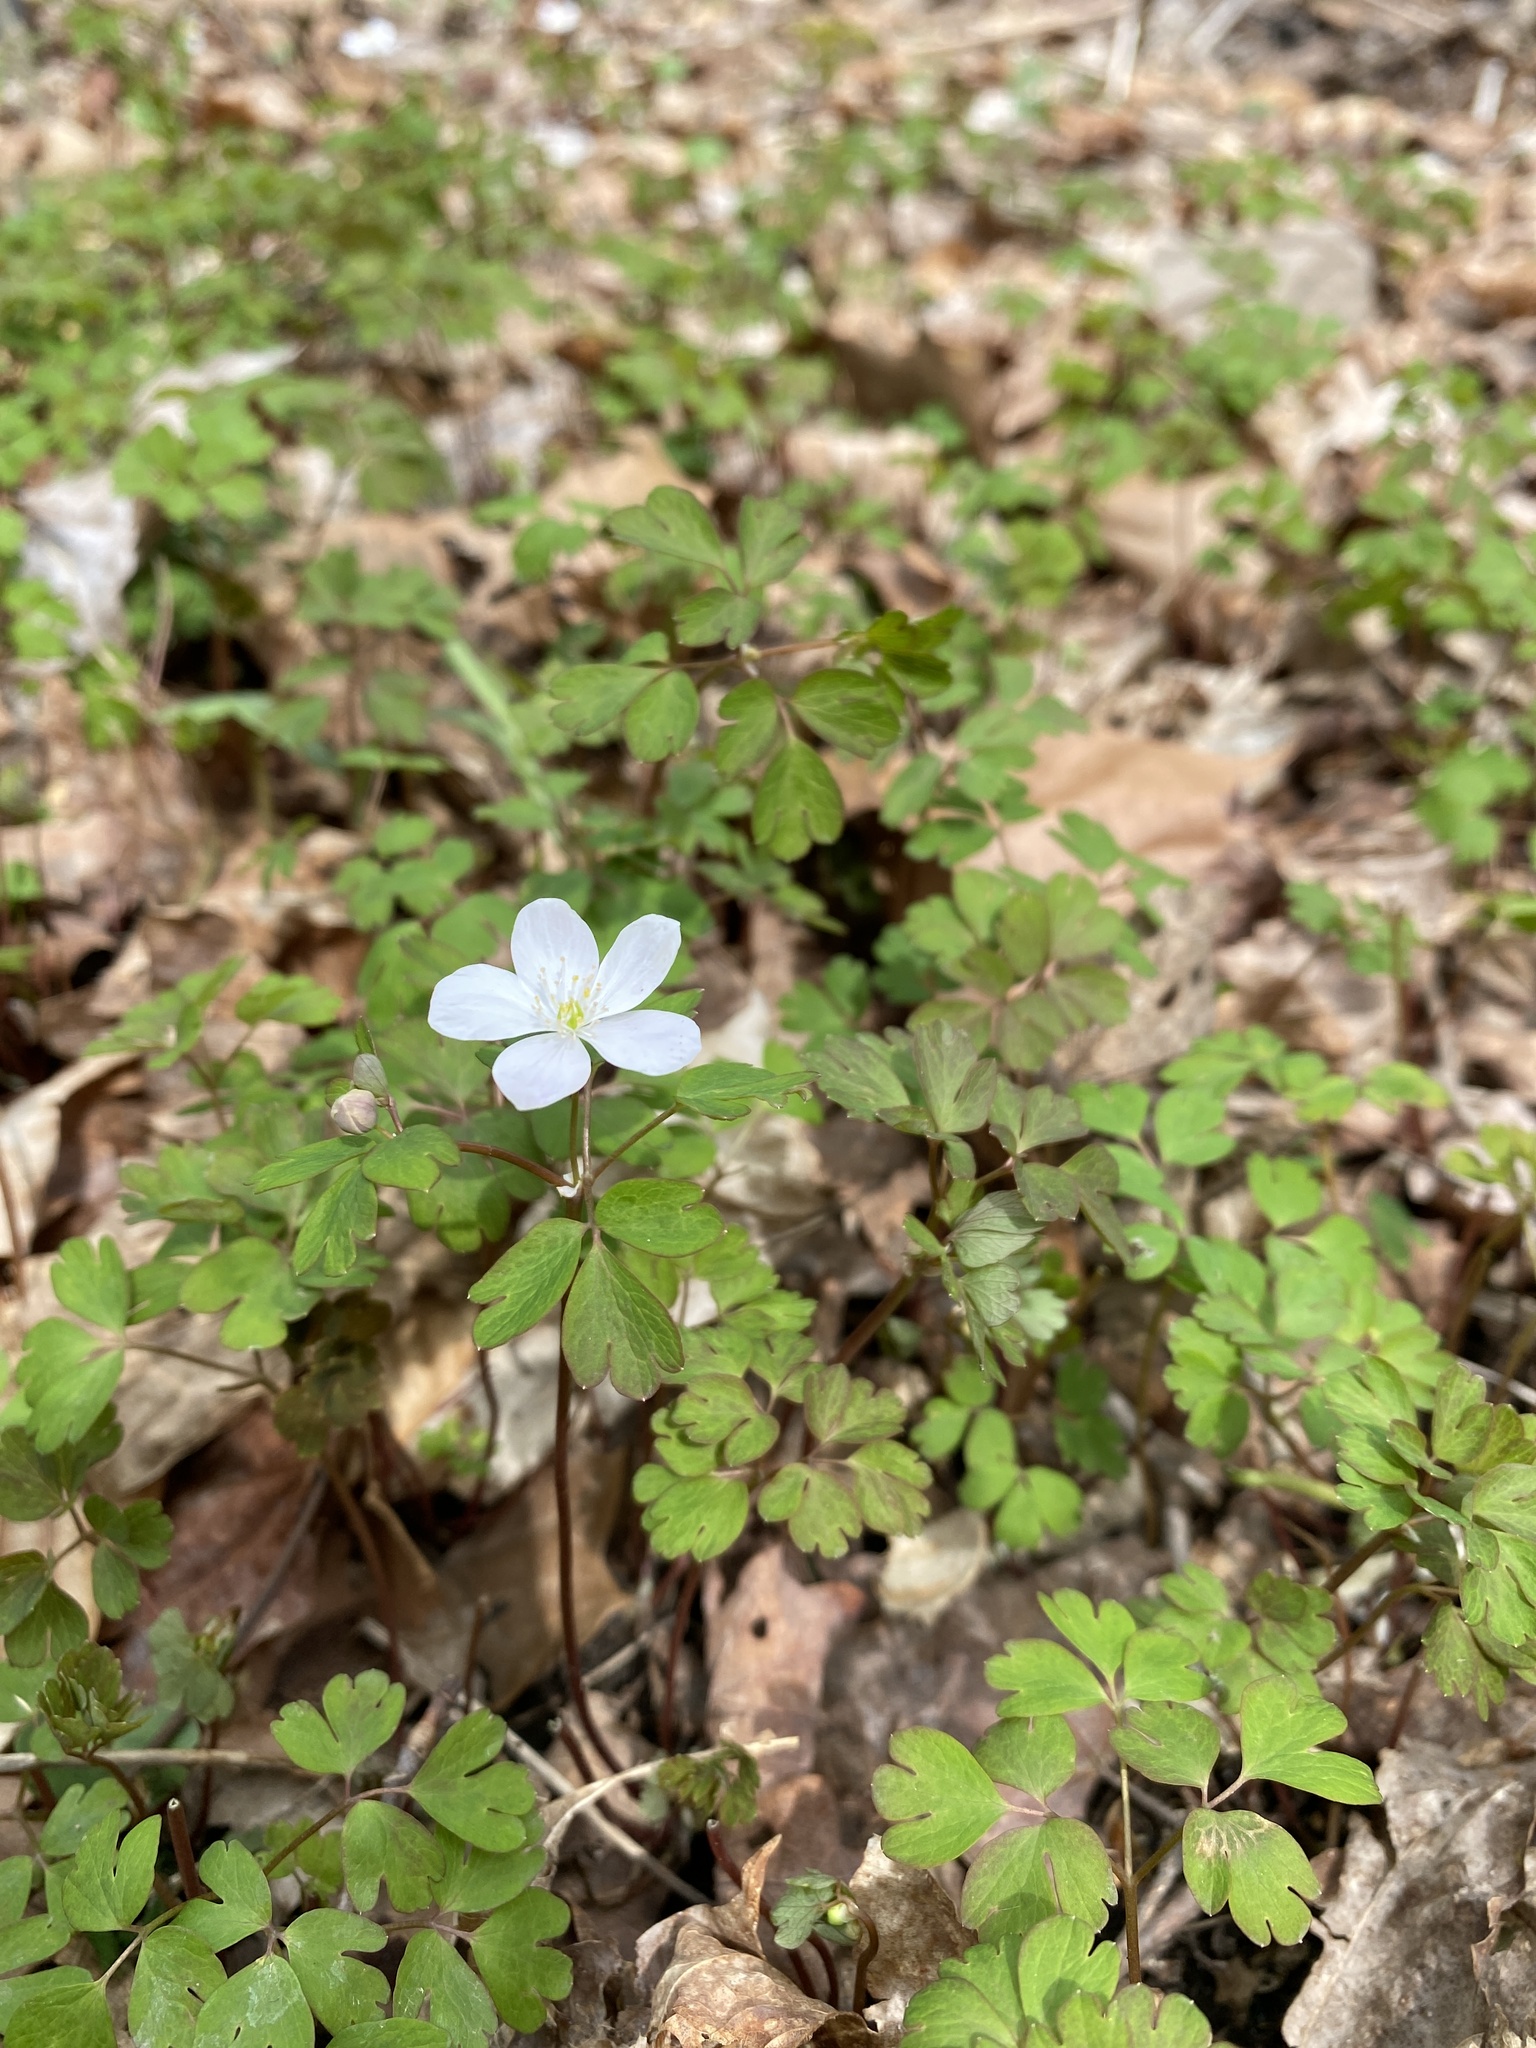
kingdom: Plantae
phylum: Tracheophyta
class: Magnoliopsida
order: Ranunculales
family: Ranunculaceae
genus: Enemion
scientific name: Enemion biternatum
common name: Eastern false rue-anemone
